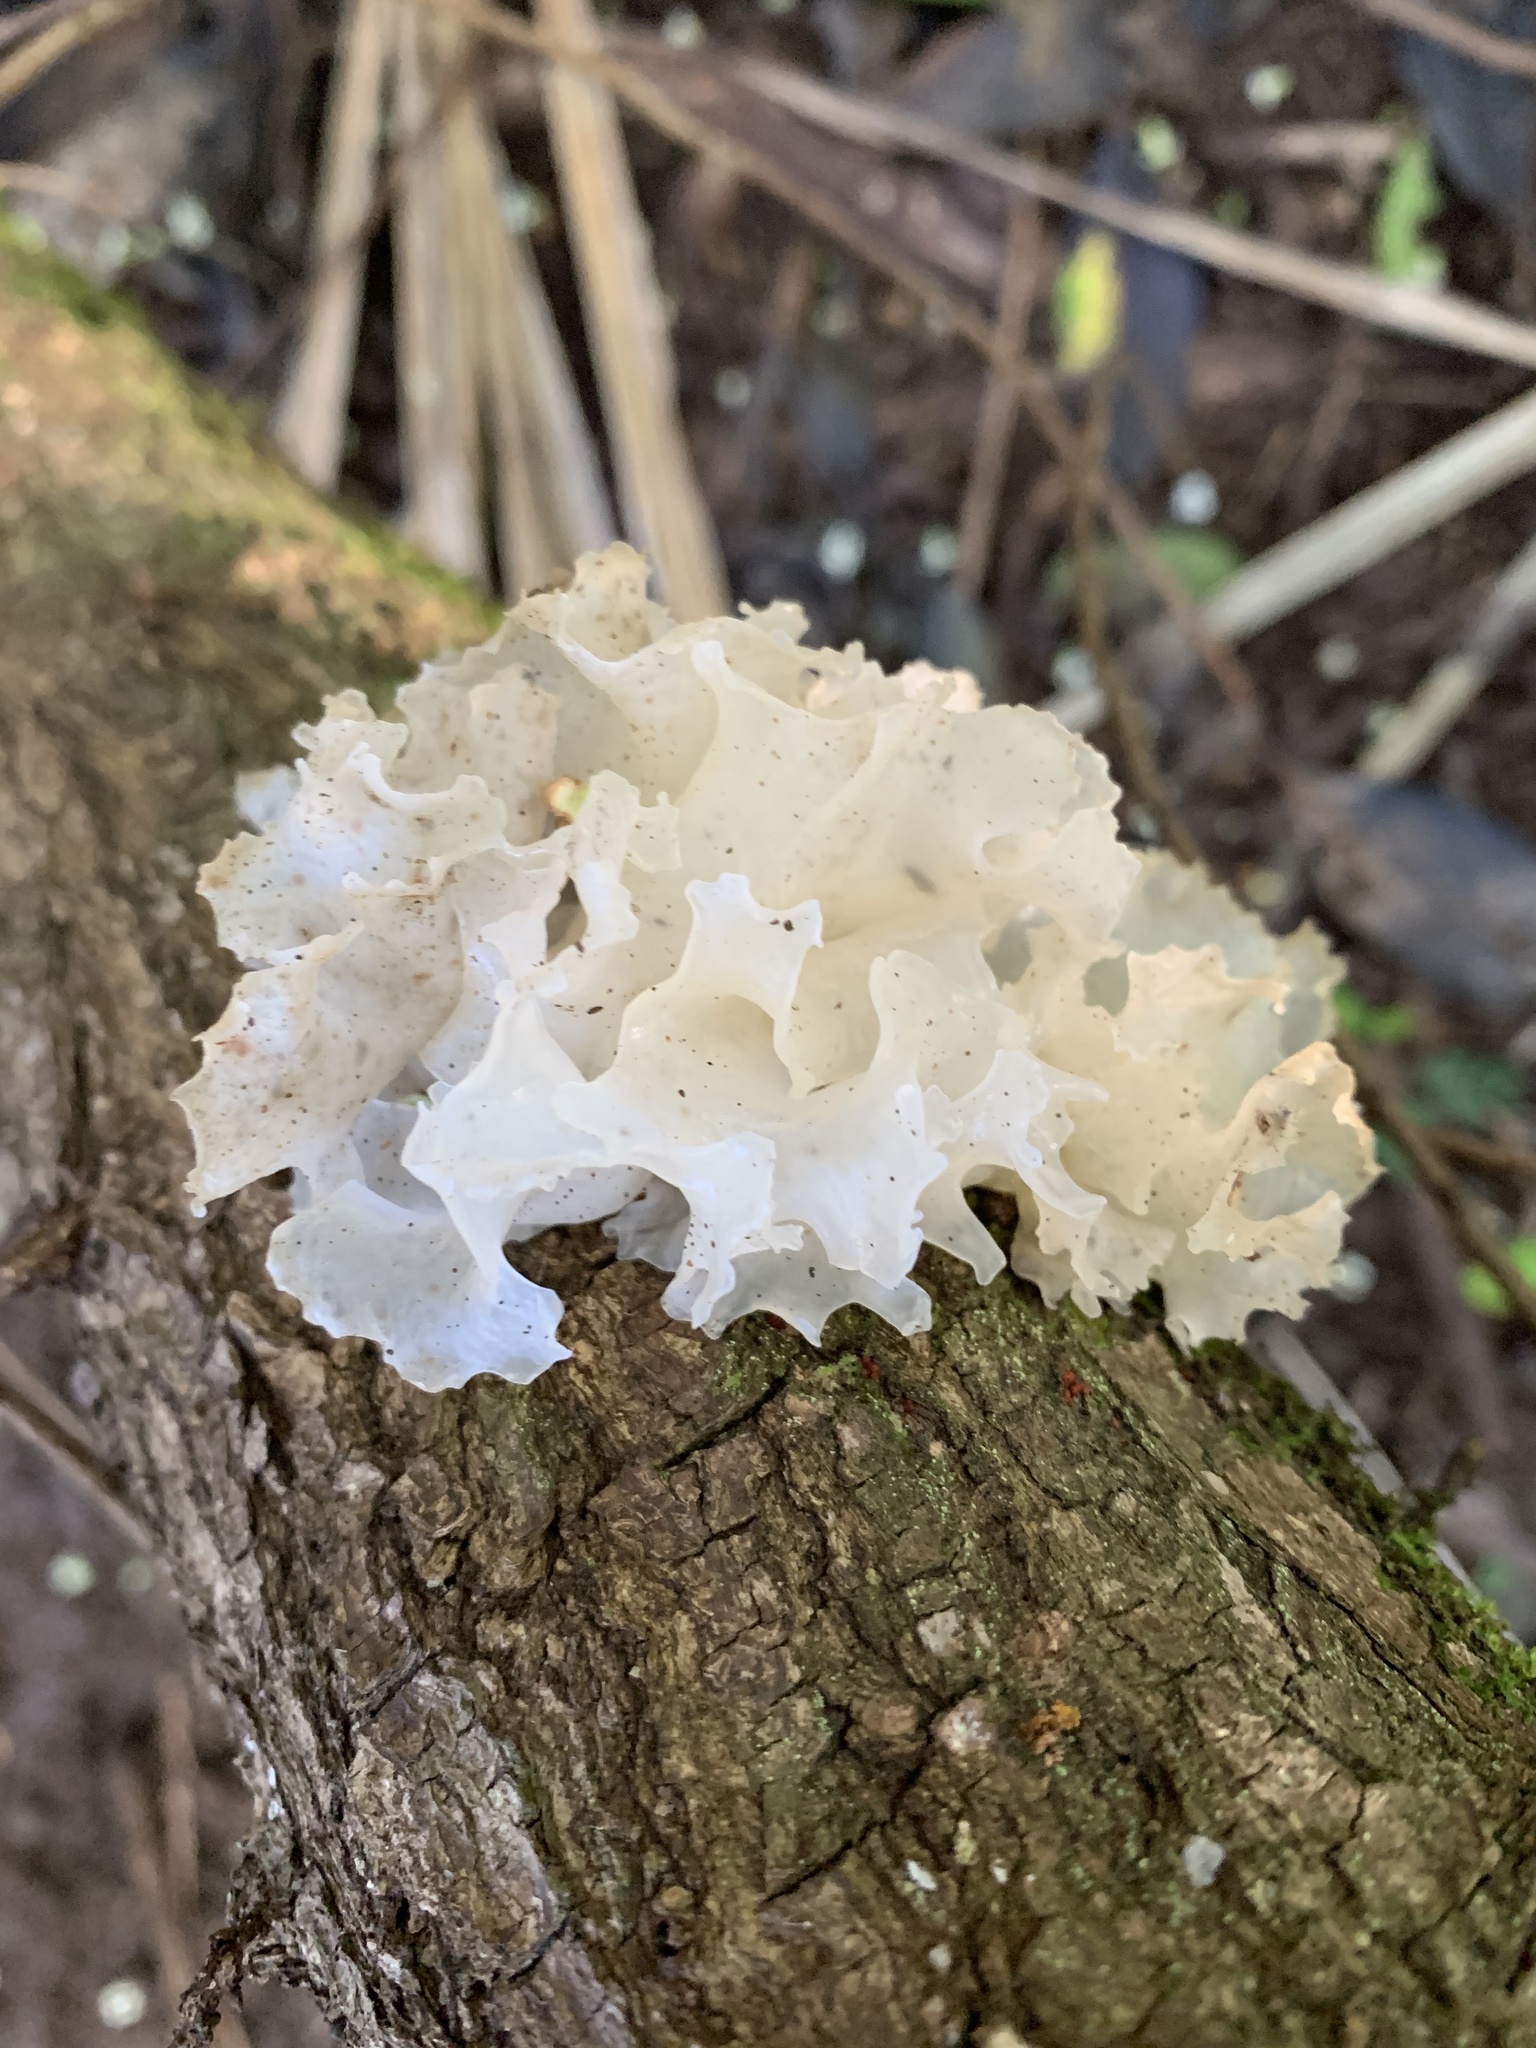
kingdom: Fungi
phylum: Basidiomycota
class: Tremellomycetes
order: Tremellales
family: Tremellaceae
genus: Tremella
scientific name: Tremella fuciformis
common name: Snow fungus
